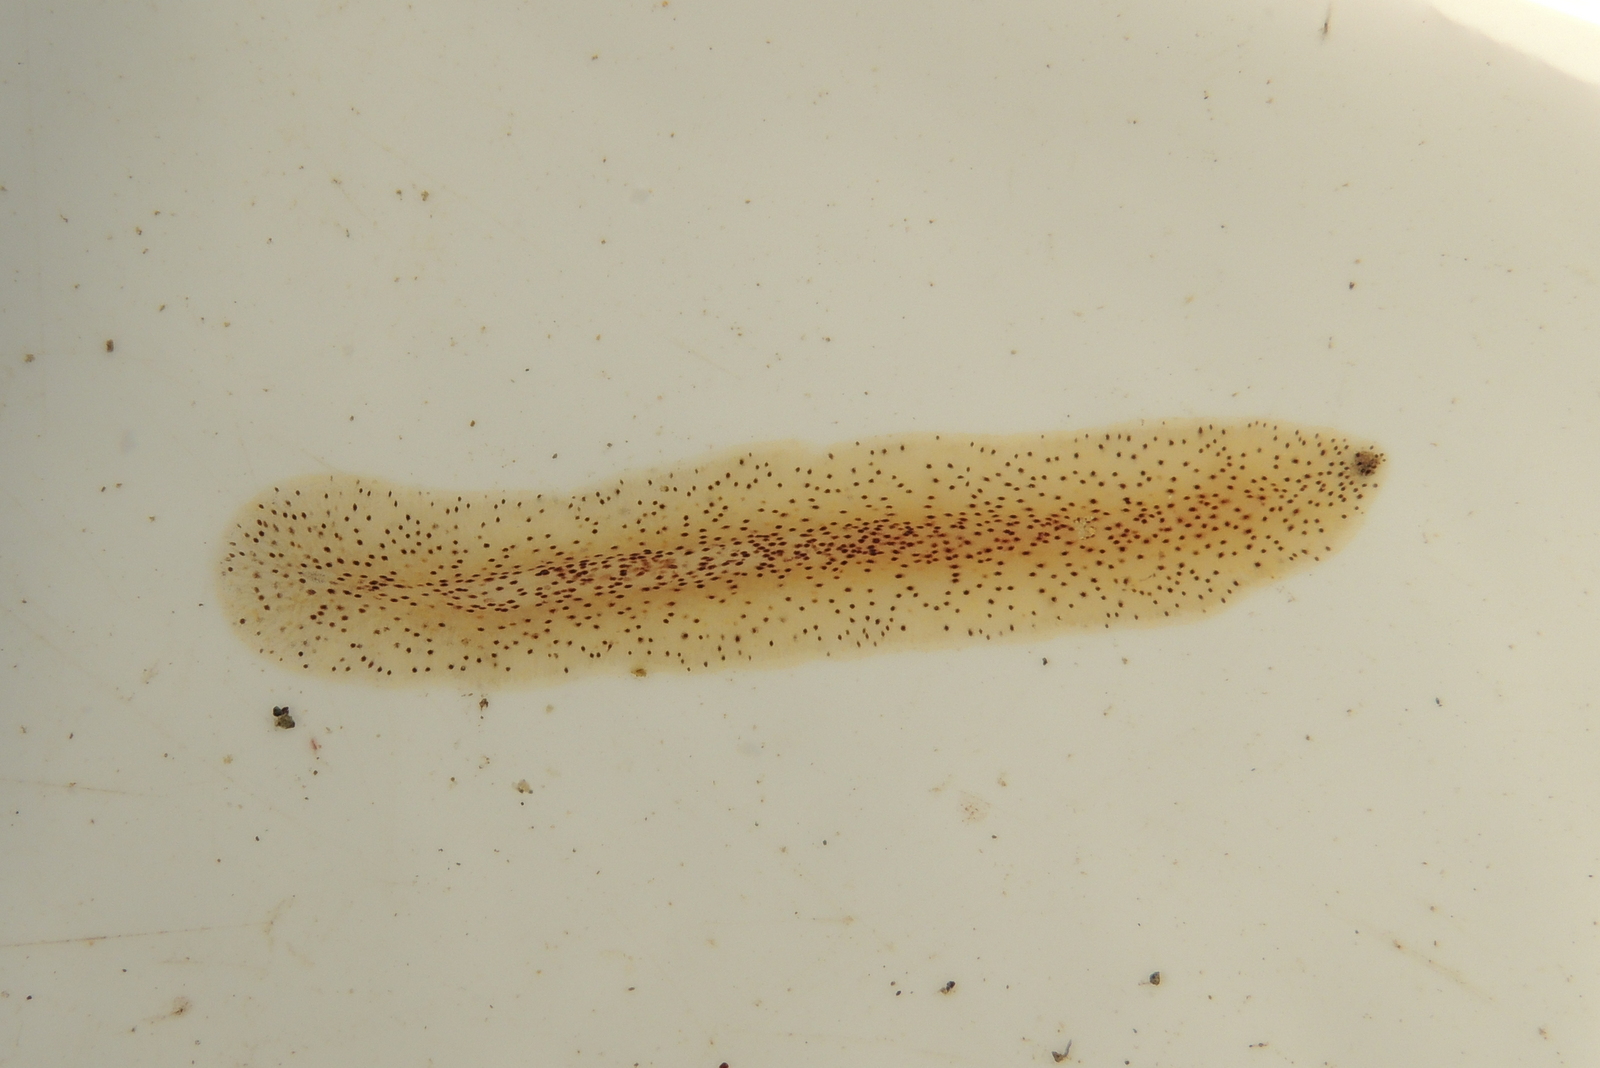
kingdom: Animalia
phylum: Platyhelminthes
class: Turbellaria
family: Prosthiostomidae
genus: Enchiridium
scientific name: Enchiridium punctatum
